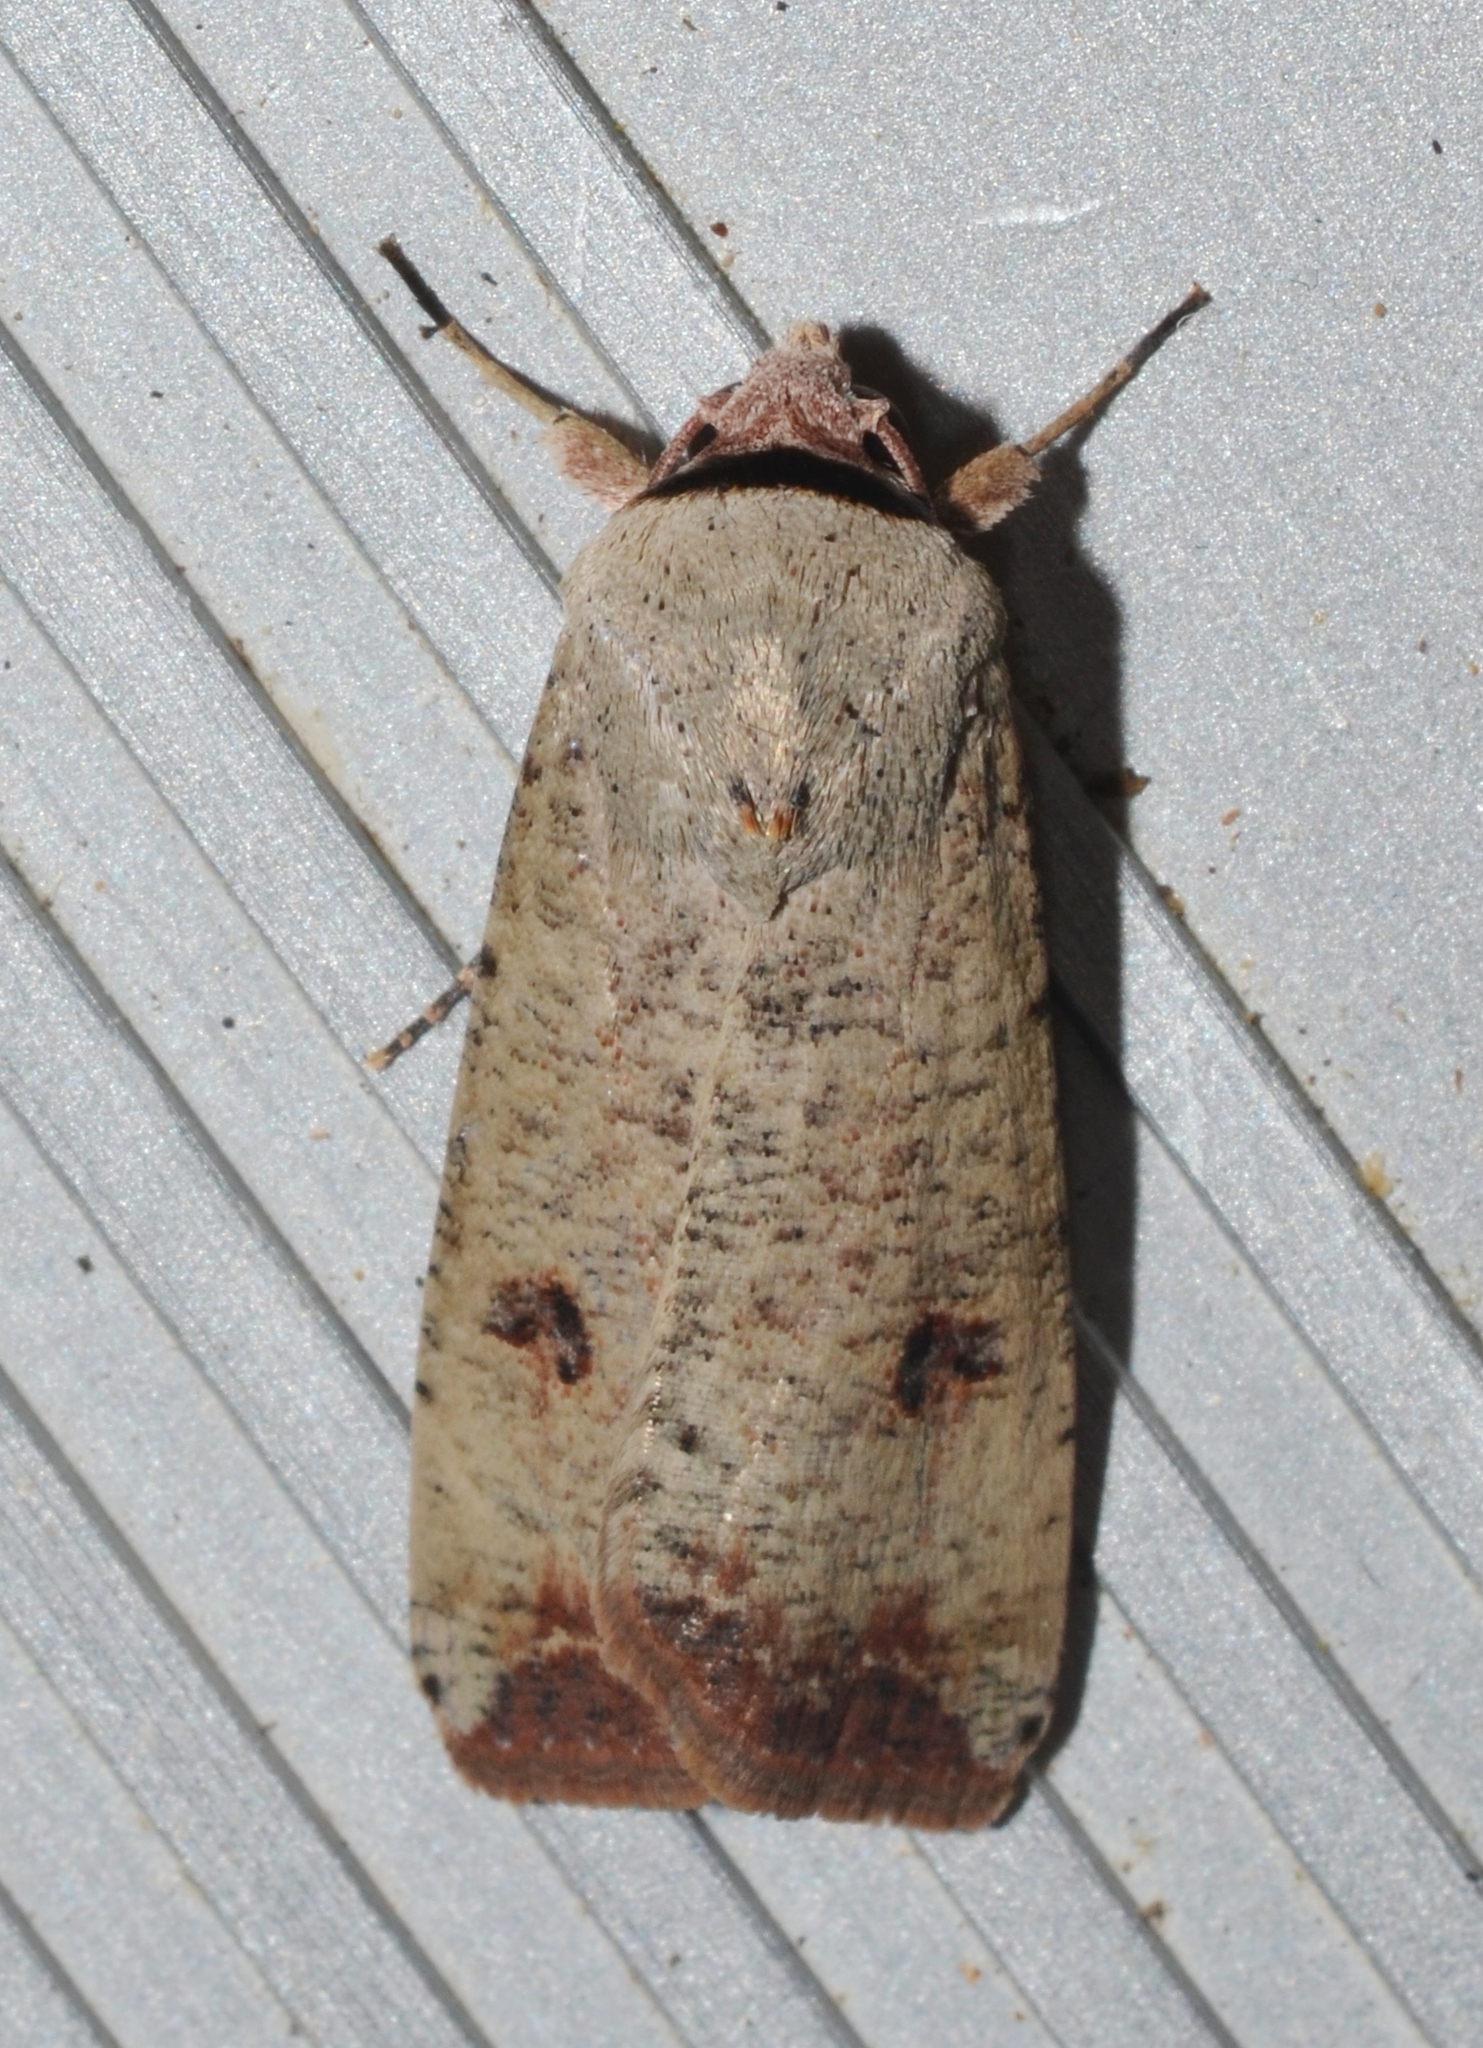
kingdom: Animalia
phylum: Arthropoda
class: Insecta
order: Lepidoptera
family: Noctuidae
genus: Anicla
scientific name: Anicla infecta
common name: Green cutworm
